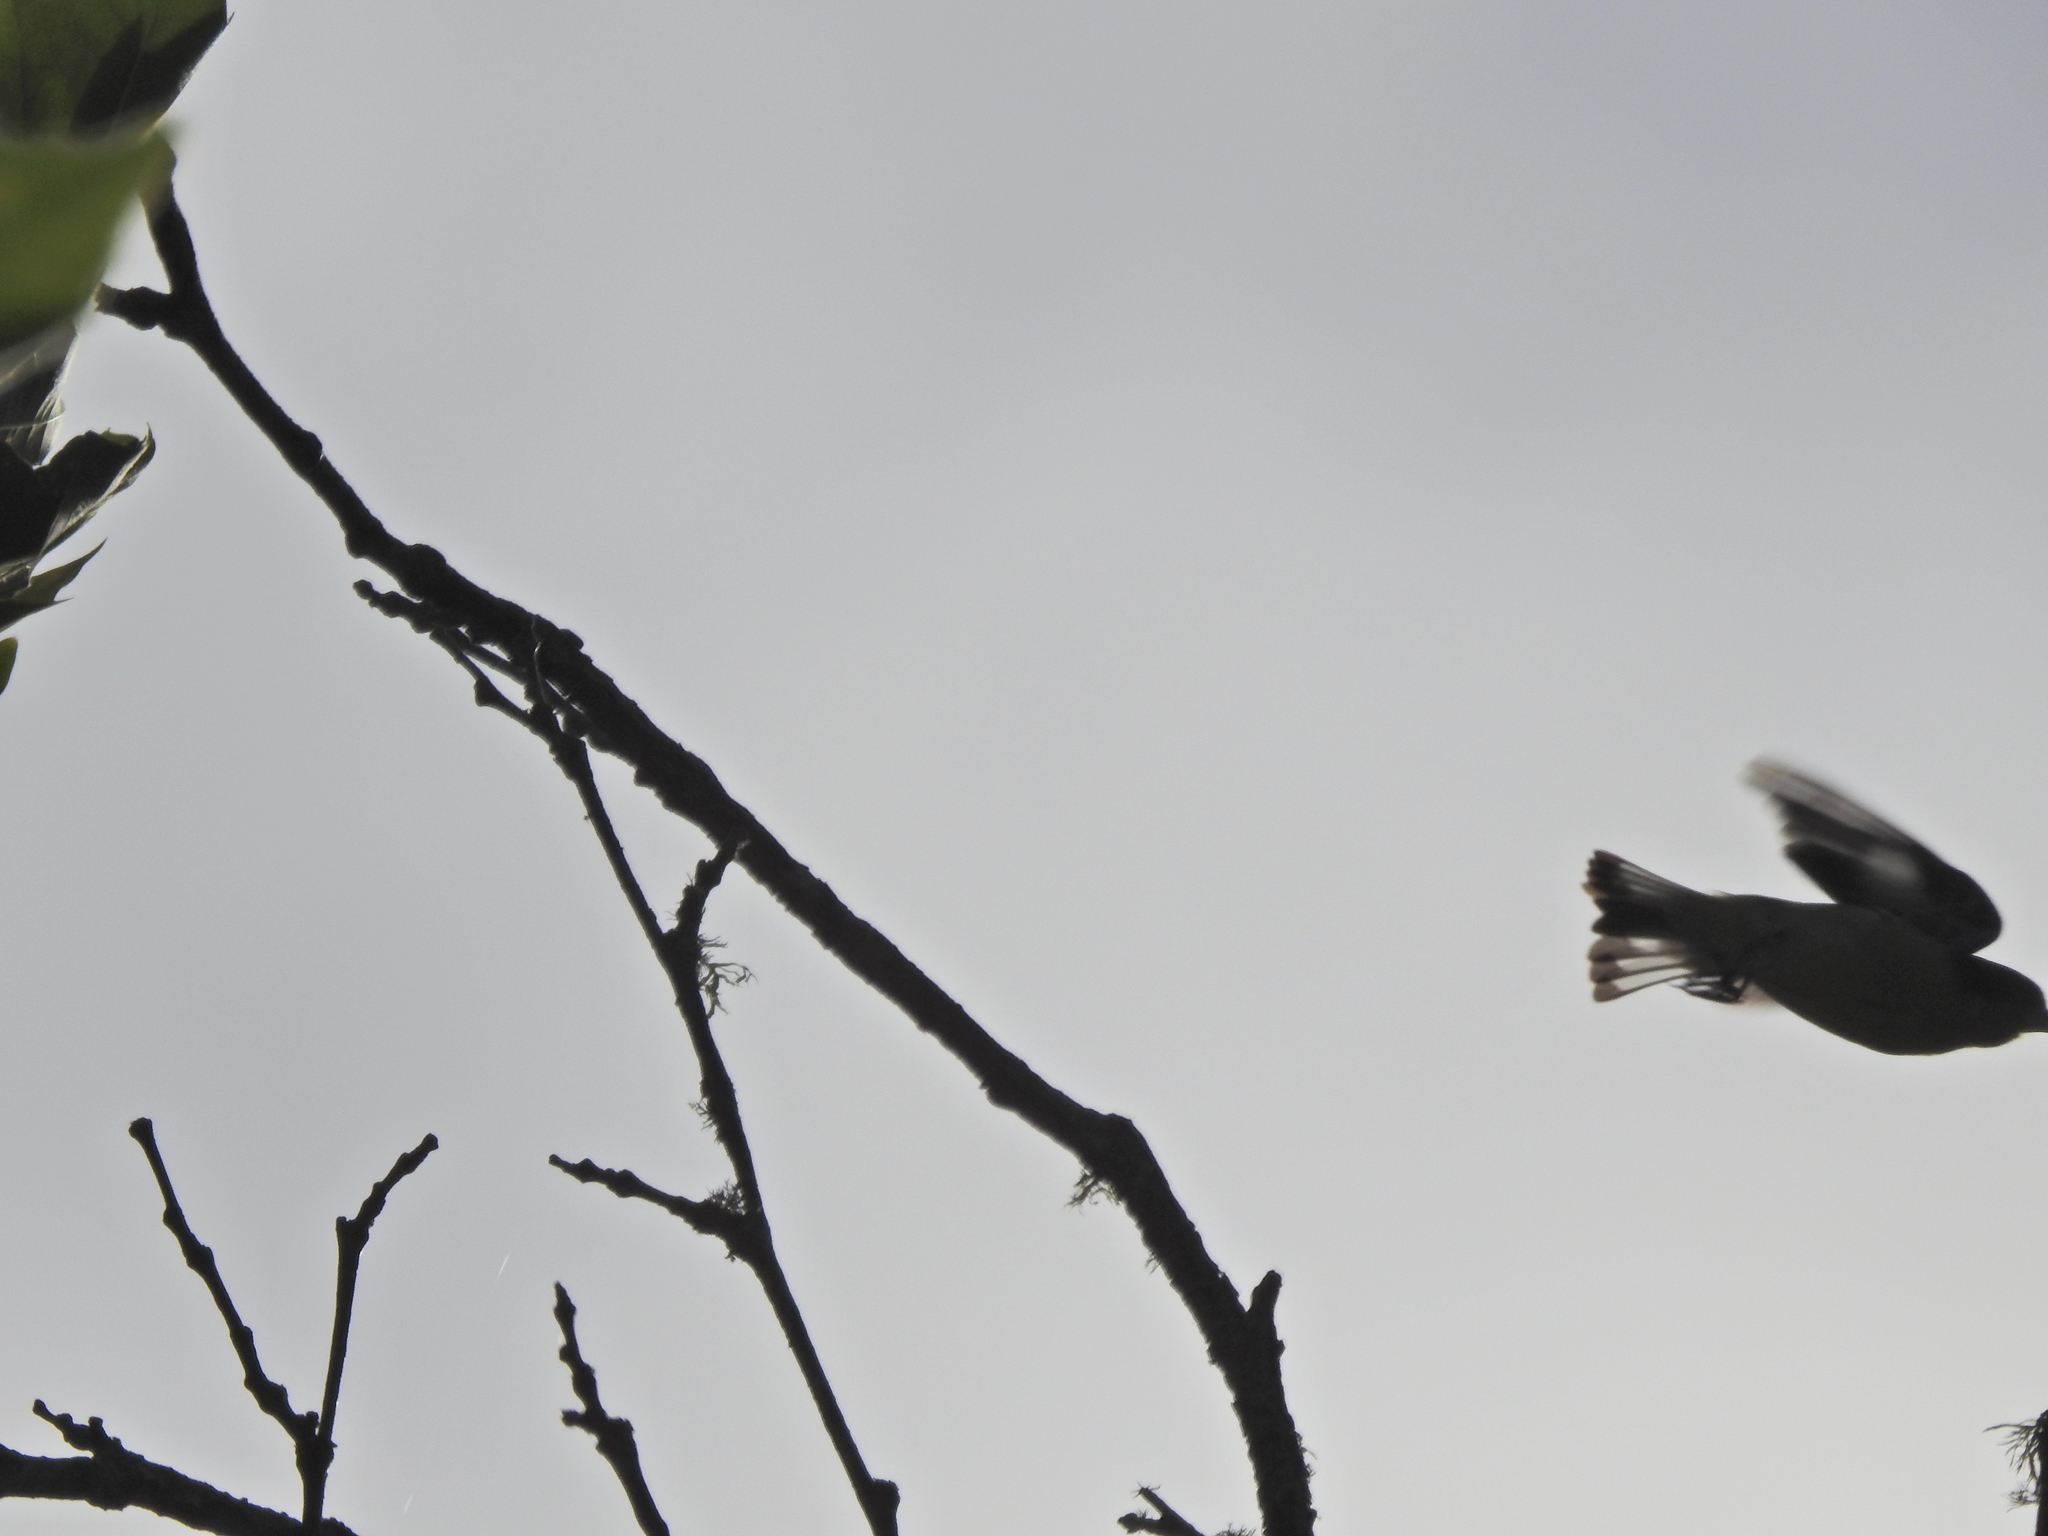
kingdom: Animalia
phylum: Chordata
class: Aves
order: Passeriformes
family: Fringillidae
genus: Spinus
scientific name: Spinus psaltria
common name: Lesser goldfinch
